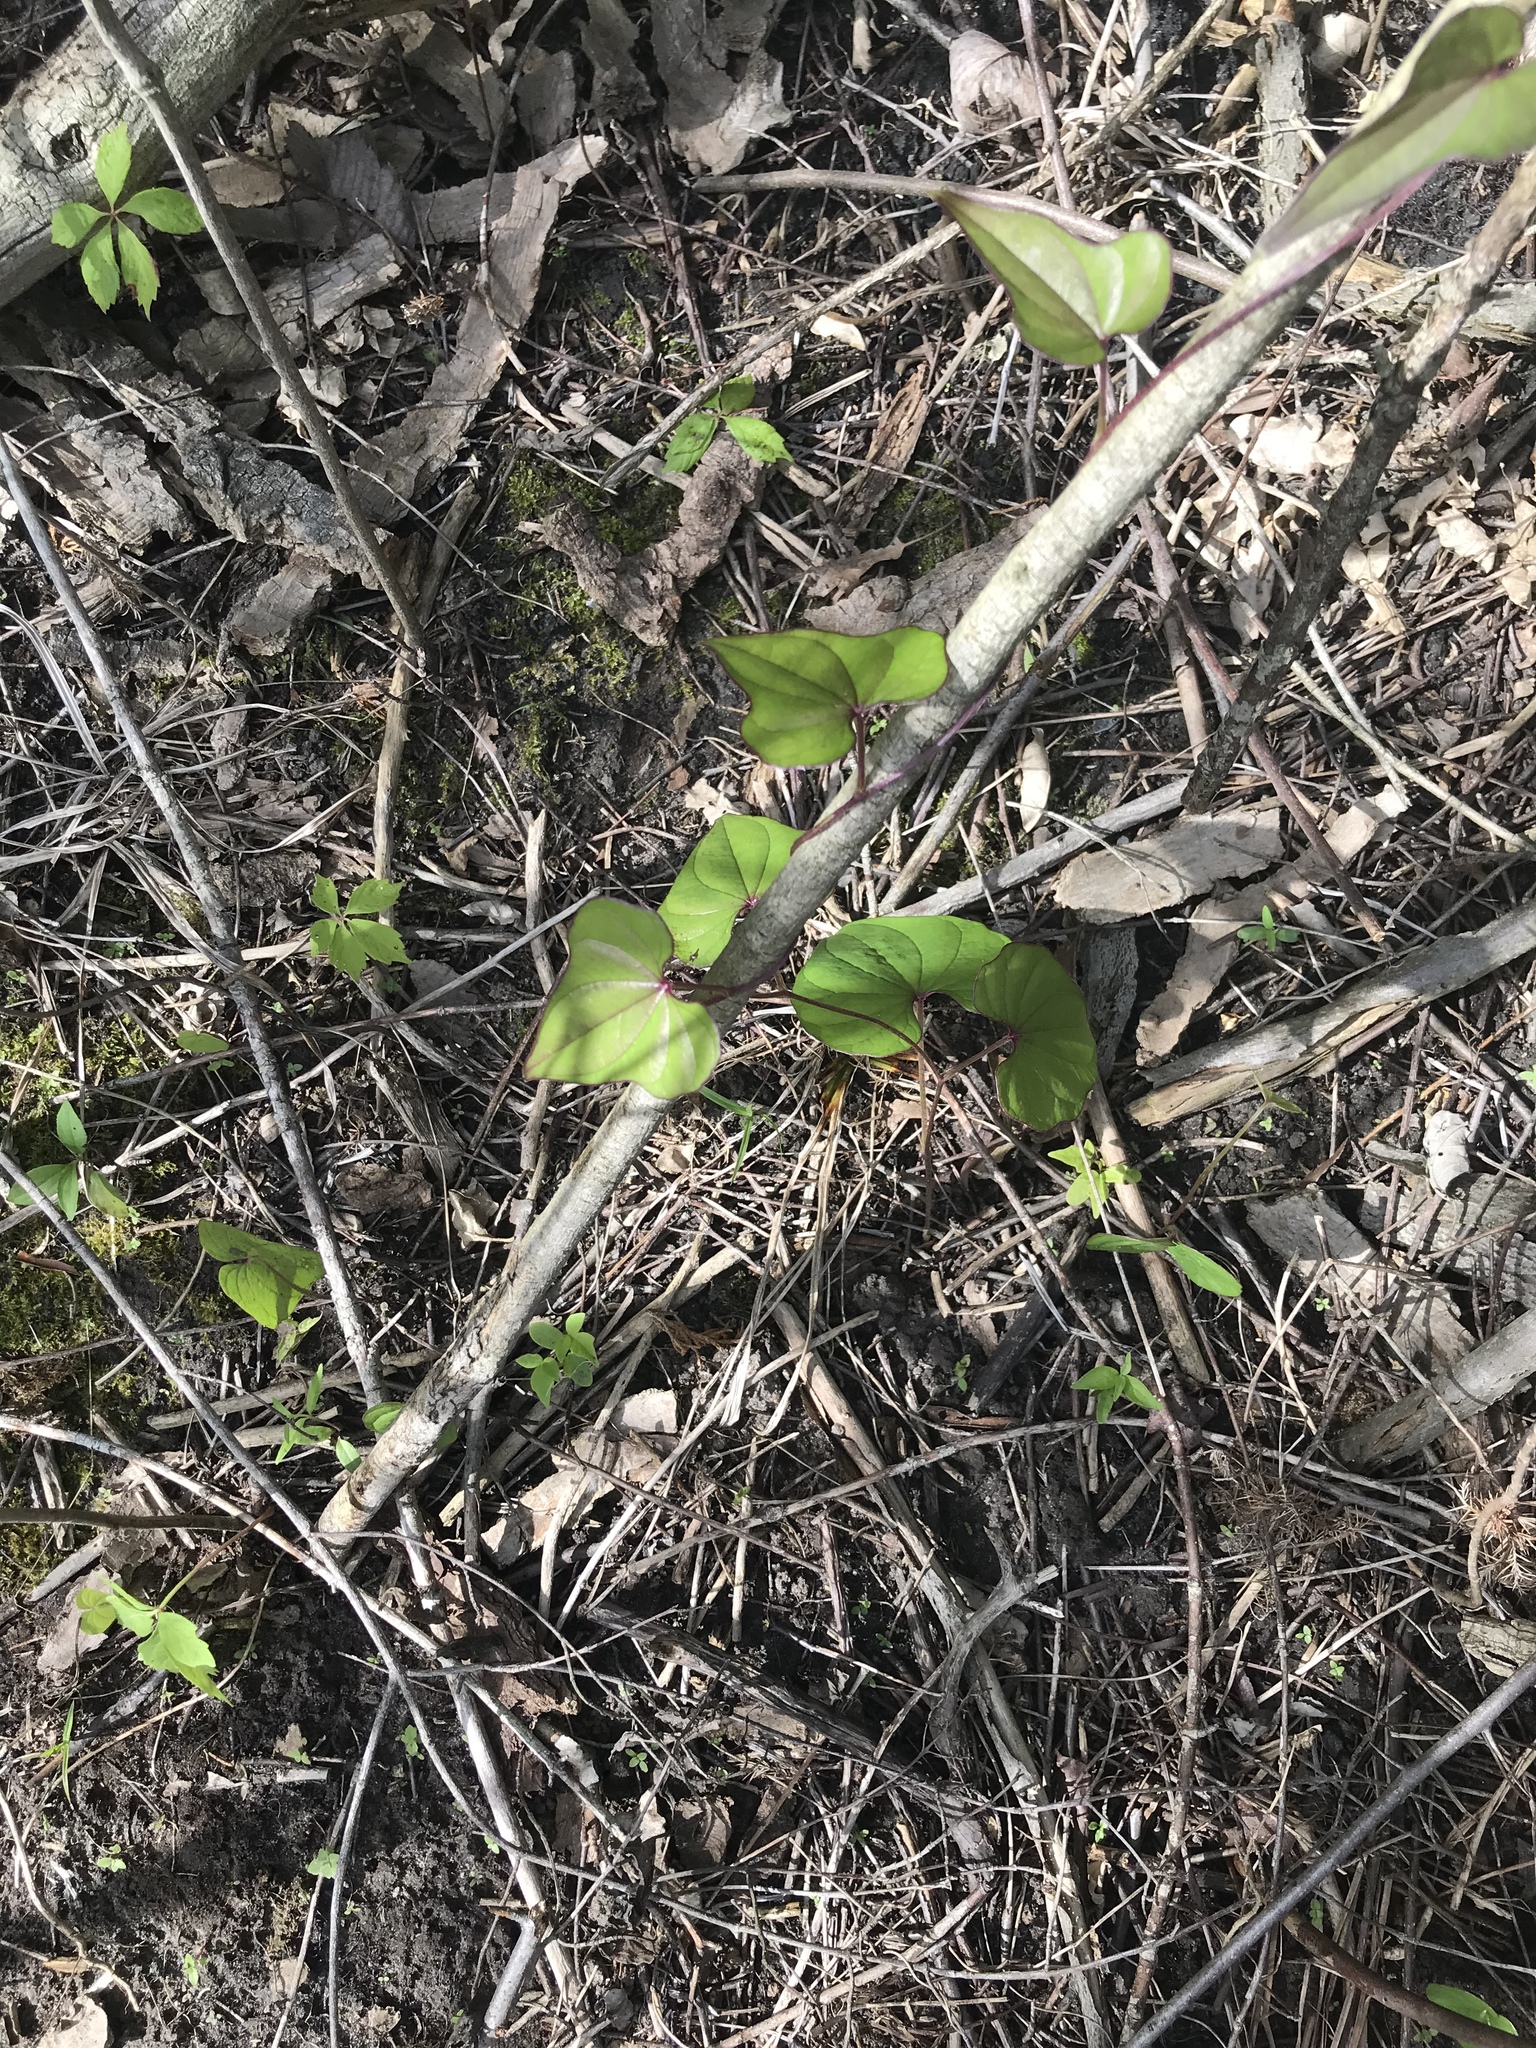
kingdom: Plantae
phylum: Tracheophyta
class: Liliopsida
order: Dioscoreales
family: Dioscoreaceae
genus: Dioscorea
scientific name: Dioscorea polystachya
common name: Chinese yam
